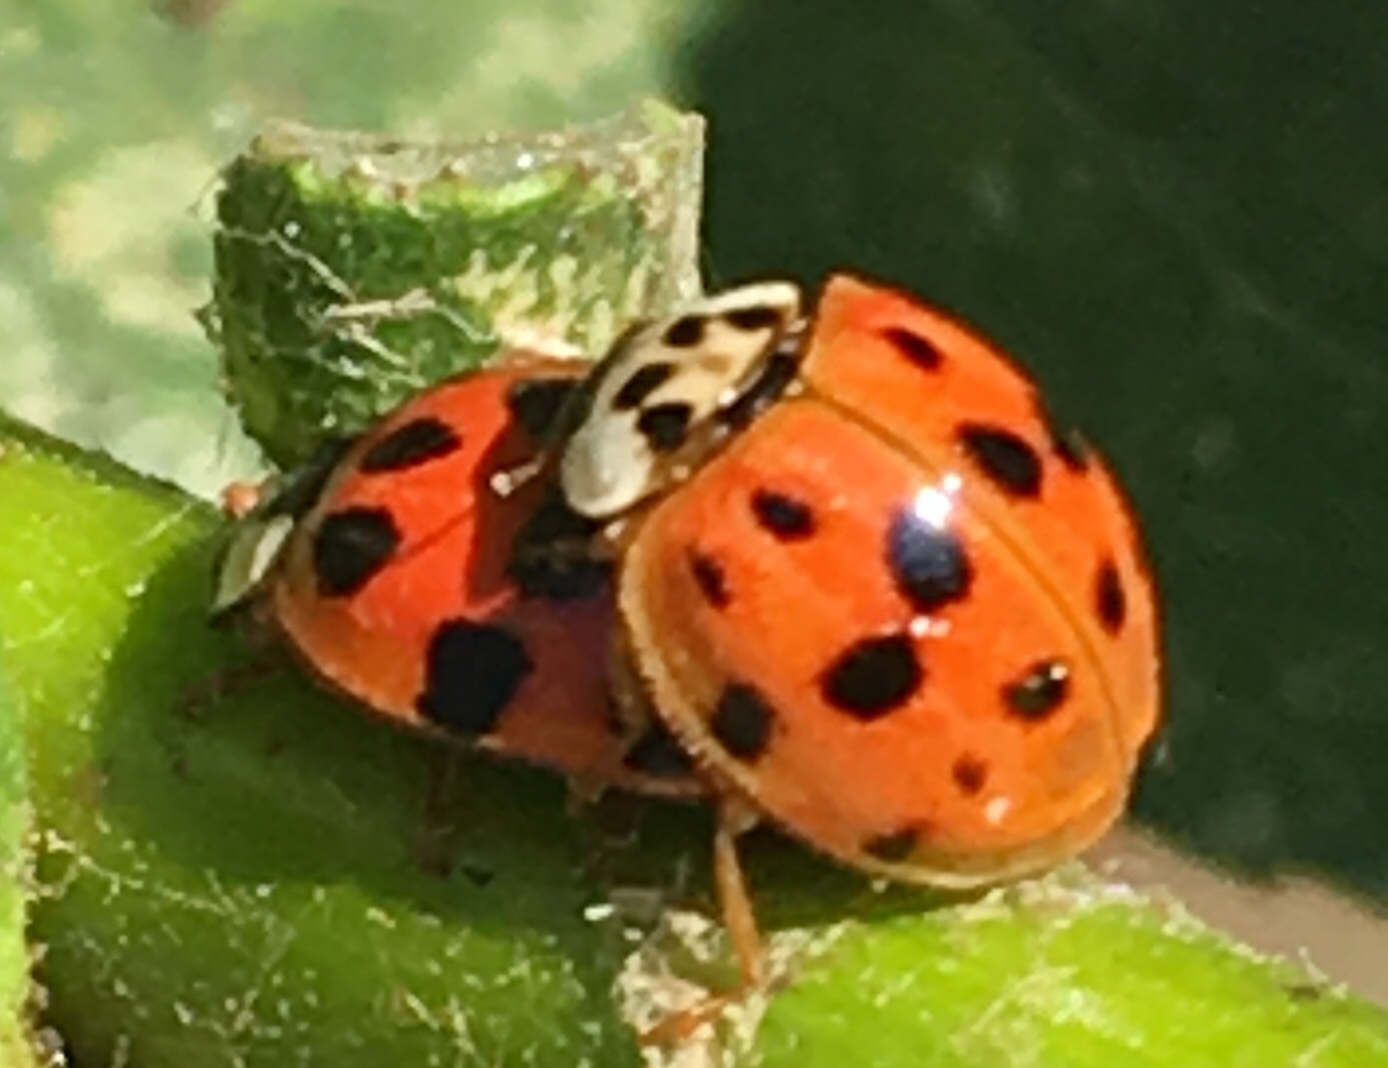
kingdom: Animalia
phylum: Arthropoda
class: Insecta
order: Coleoptera
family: Coccinellidae
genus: Harmonia
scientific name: Harmonia axyridis
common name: Harlequin ladybird
